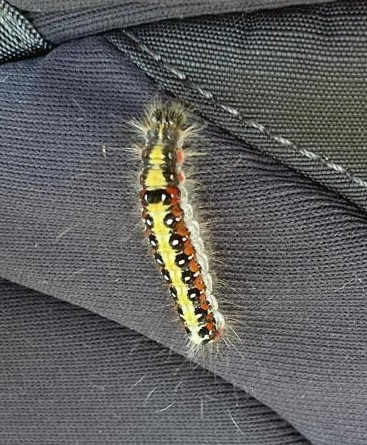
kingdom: Animalia
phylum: Arthropoda
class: Insecta
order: Lepidoptera
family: Noctuidae
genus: Acronicta
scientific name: Acronicta tridens
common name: Dark dagger
